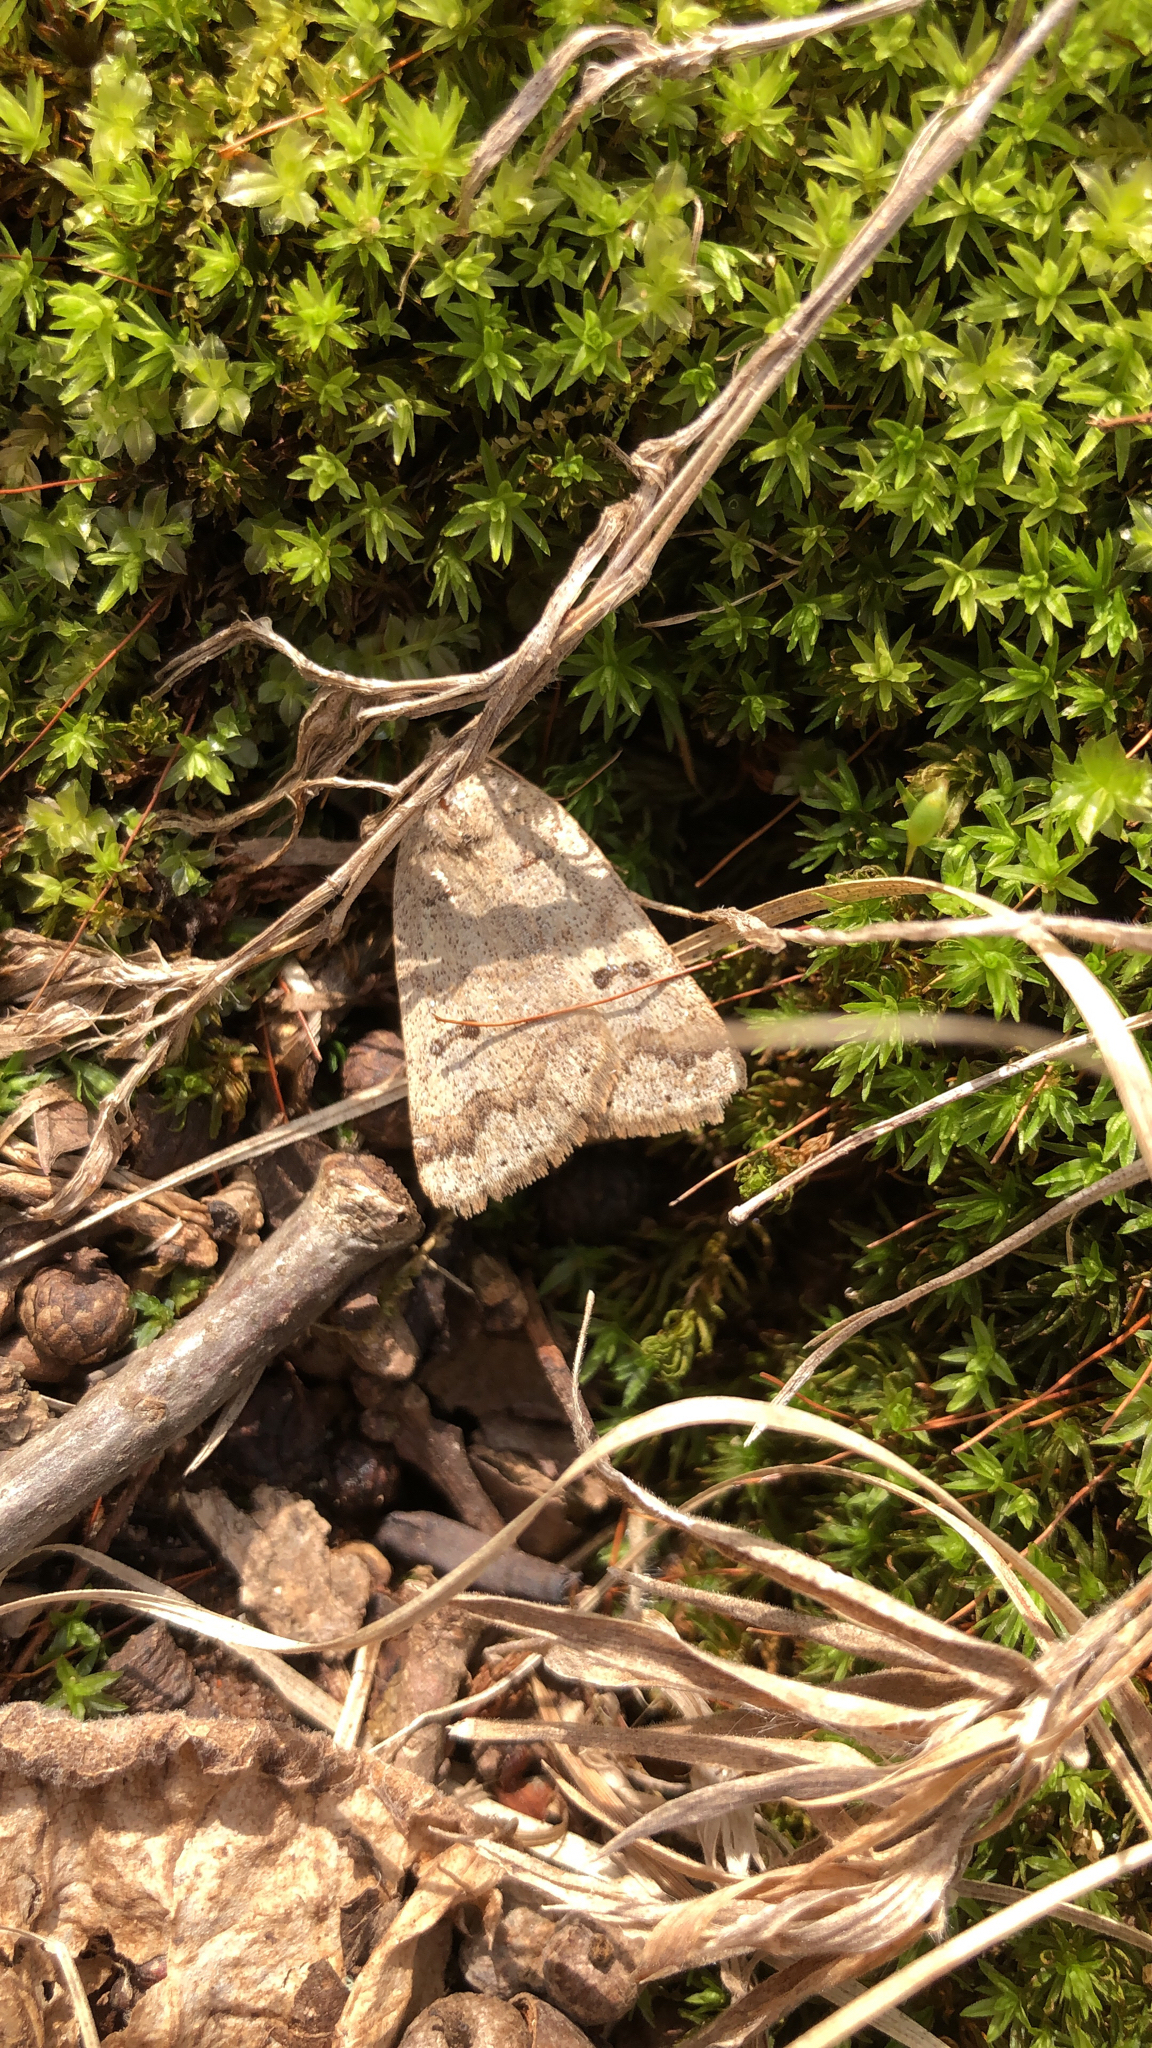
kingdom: Animalia
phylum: Arthropoda
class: Insecta
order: Lepidoptera
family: Erebidae
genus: Phoberia
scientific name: Phoberia atomaris
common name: Common oak moth
